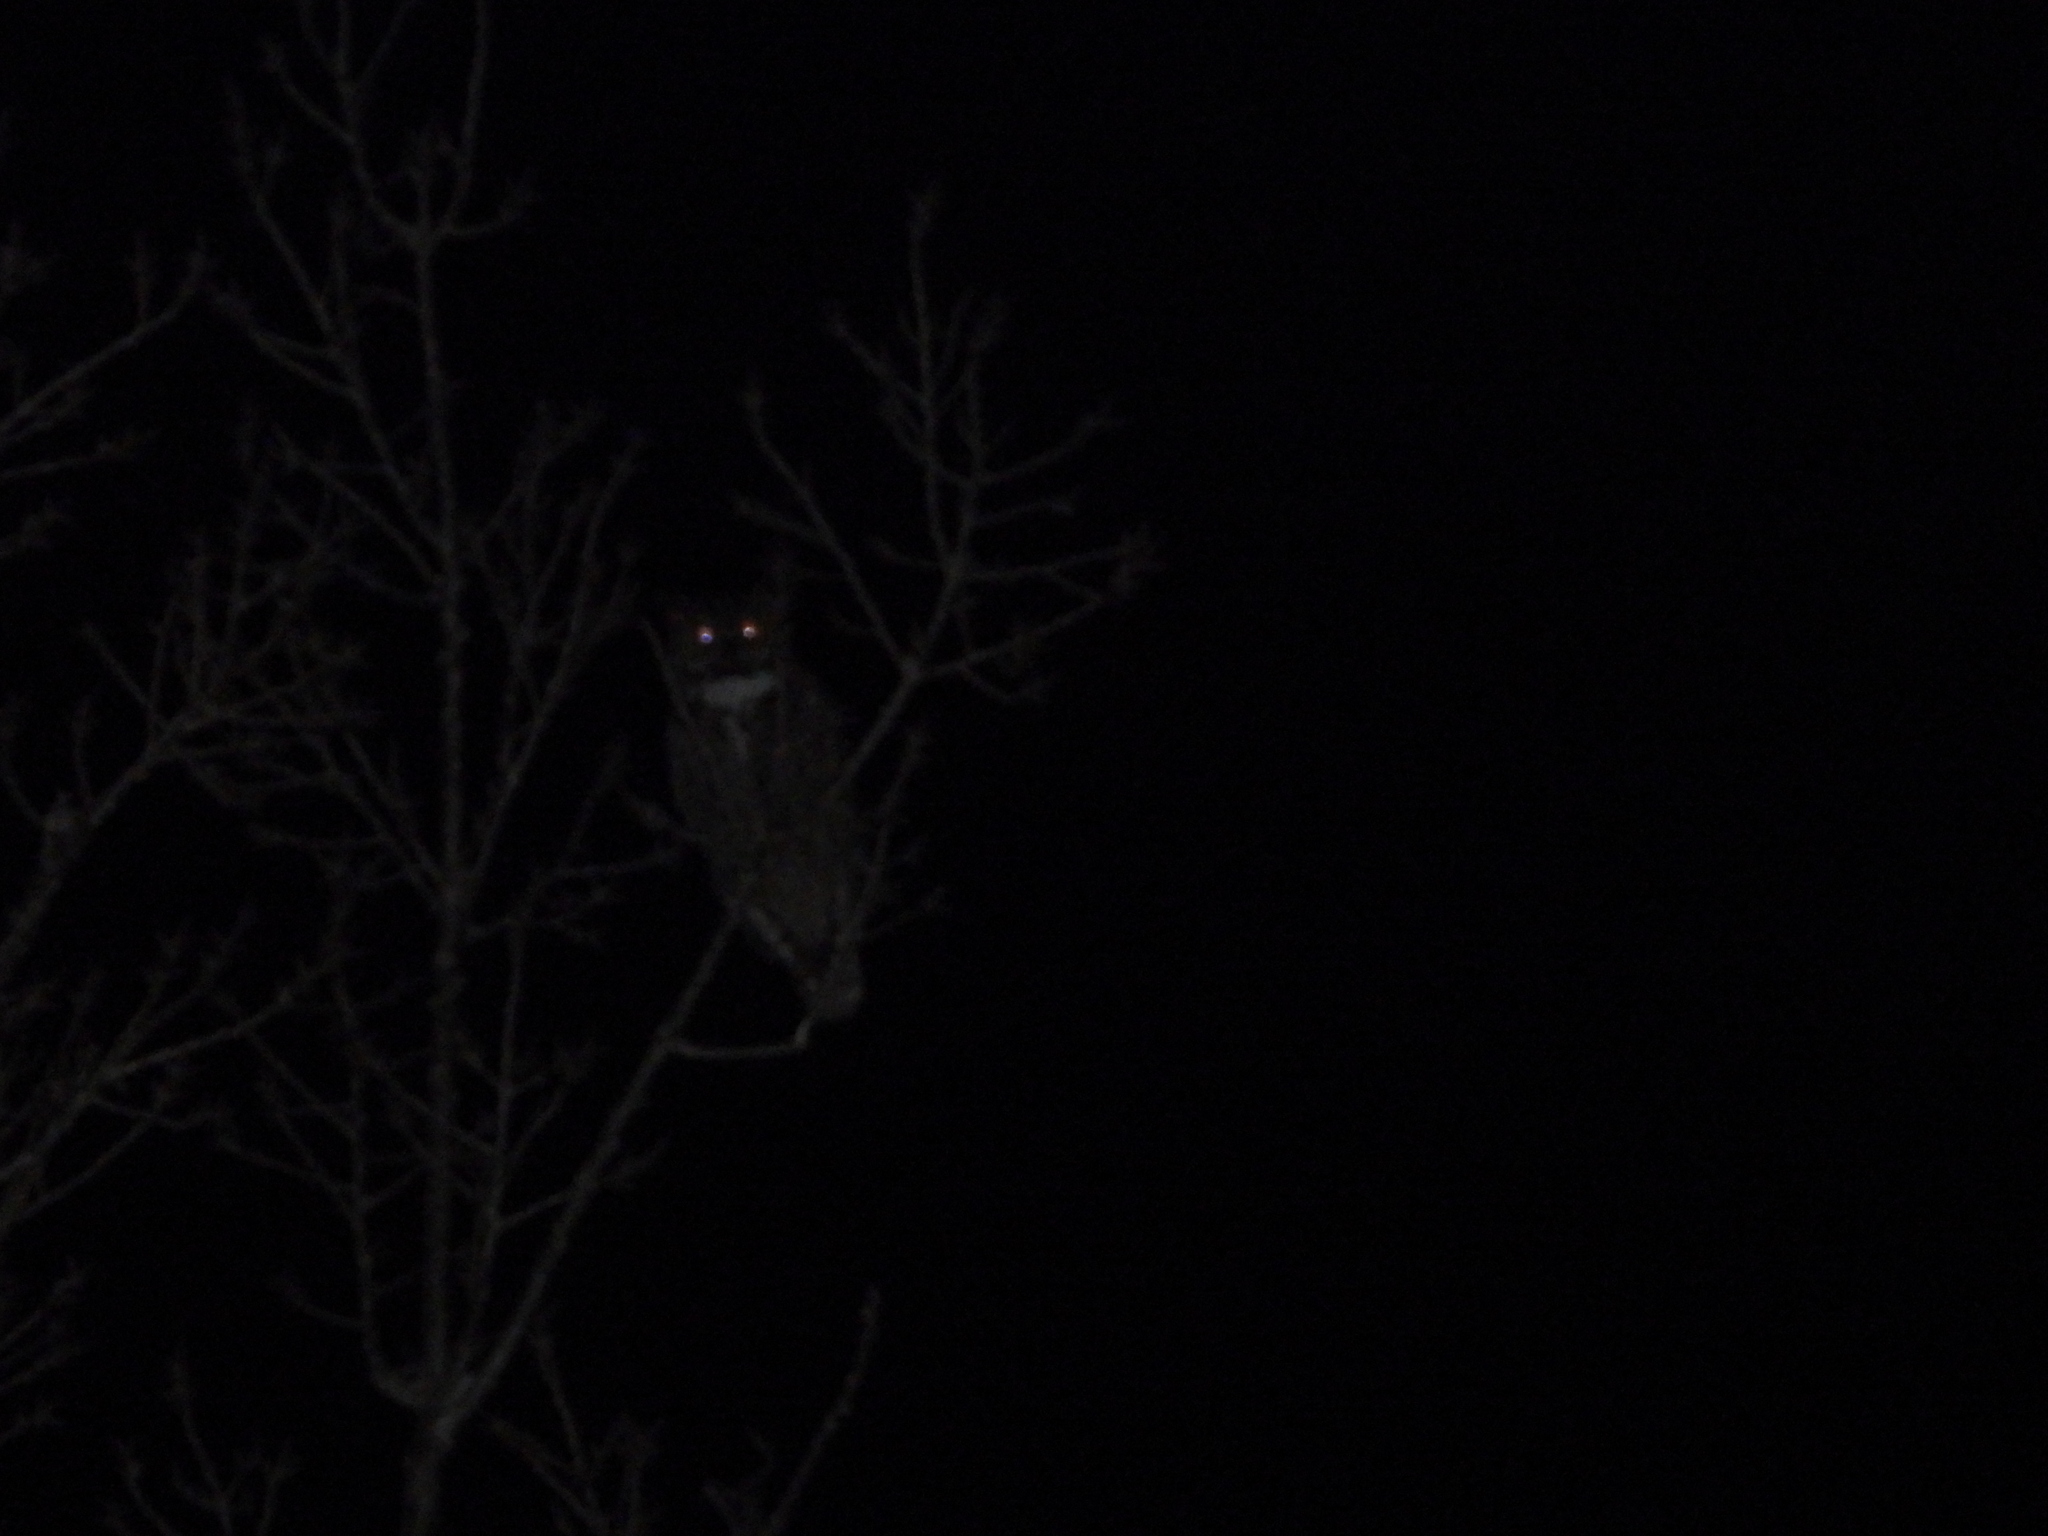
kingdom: Animalia
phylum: Chordata
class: Aves
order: Strigiformes
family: Strigidae
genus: Bubo
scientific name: Bubo virginianus
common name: Great horned owl
